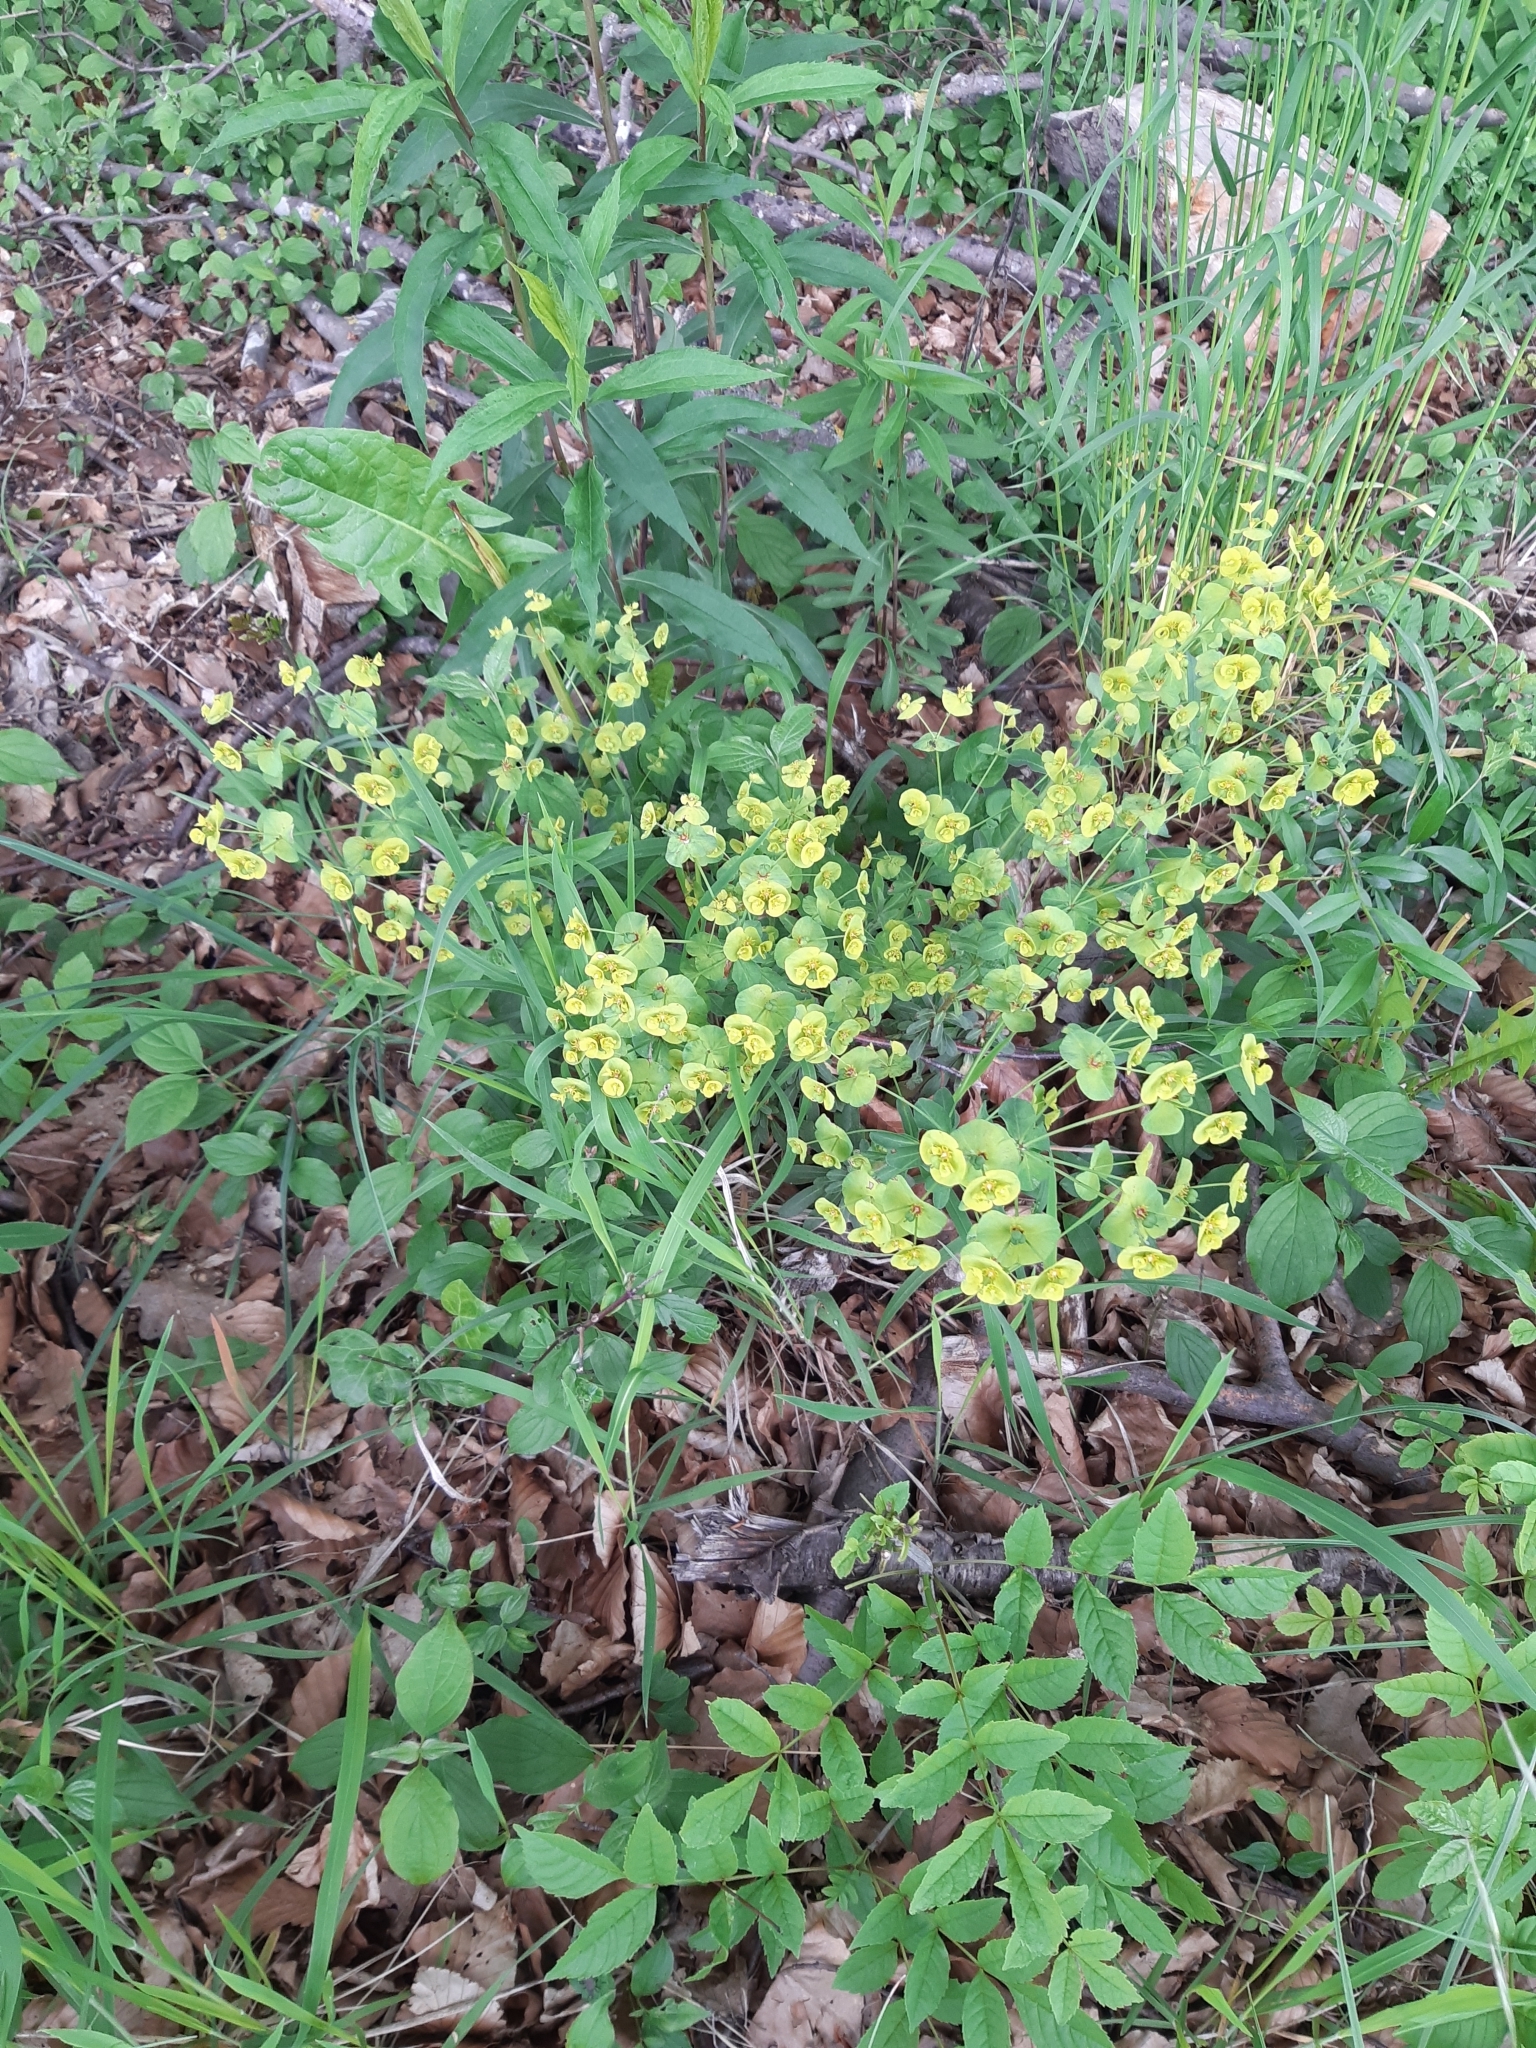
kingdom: Plantae
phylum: Tracheophyta
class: Magnoliopsida
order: Malpighiales
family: Euphorbiaceae
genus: Euphorbia
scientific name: Euphorbia amygdaloides
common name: Wood spurge
